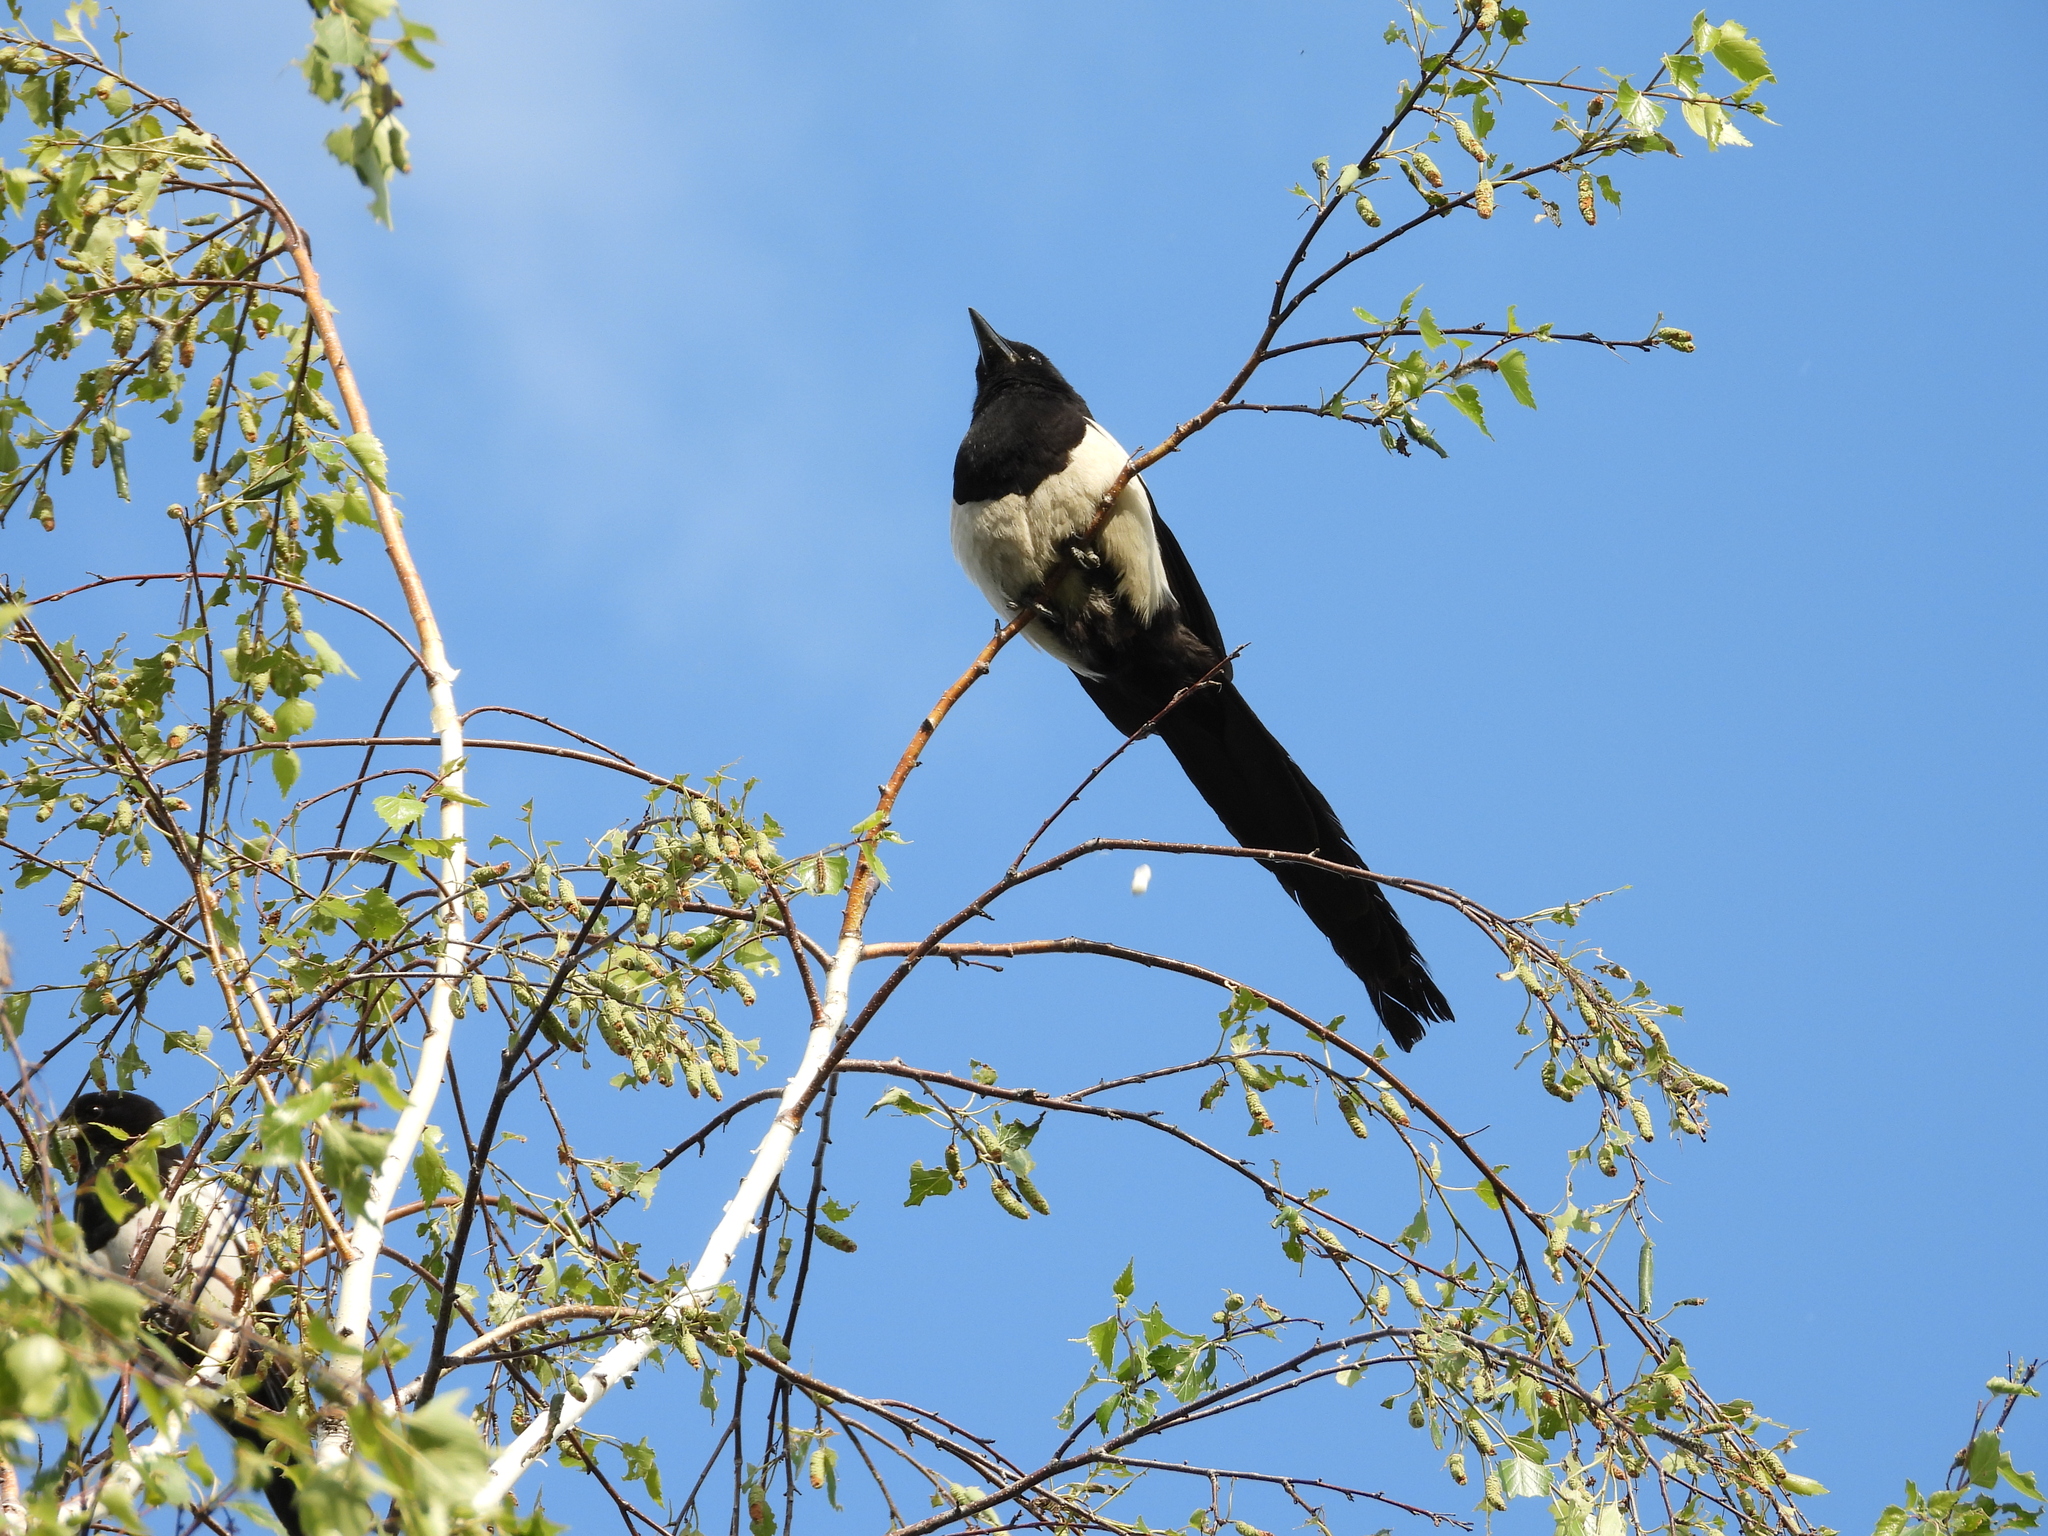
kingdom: Animalia
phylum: Chordata
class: Aves
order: Passeriformes
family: Corvidae
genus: Pica
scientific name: Pica pica
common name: Eurasian magpie
